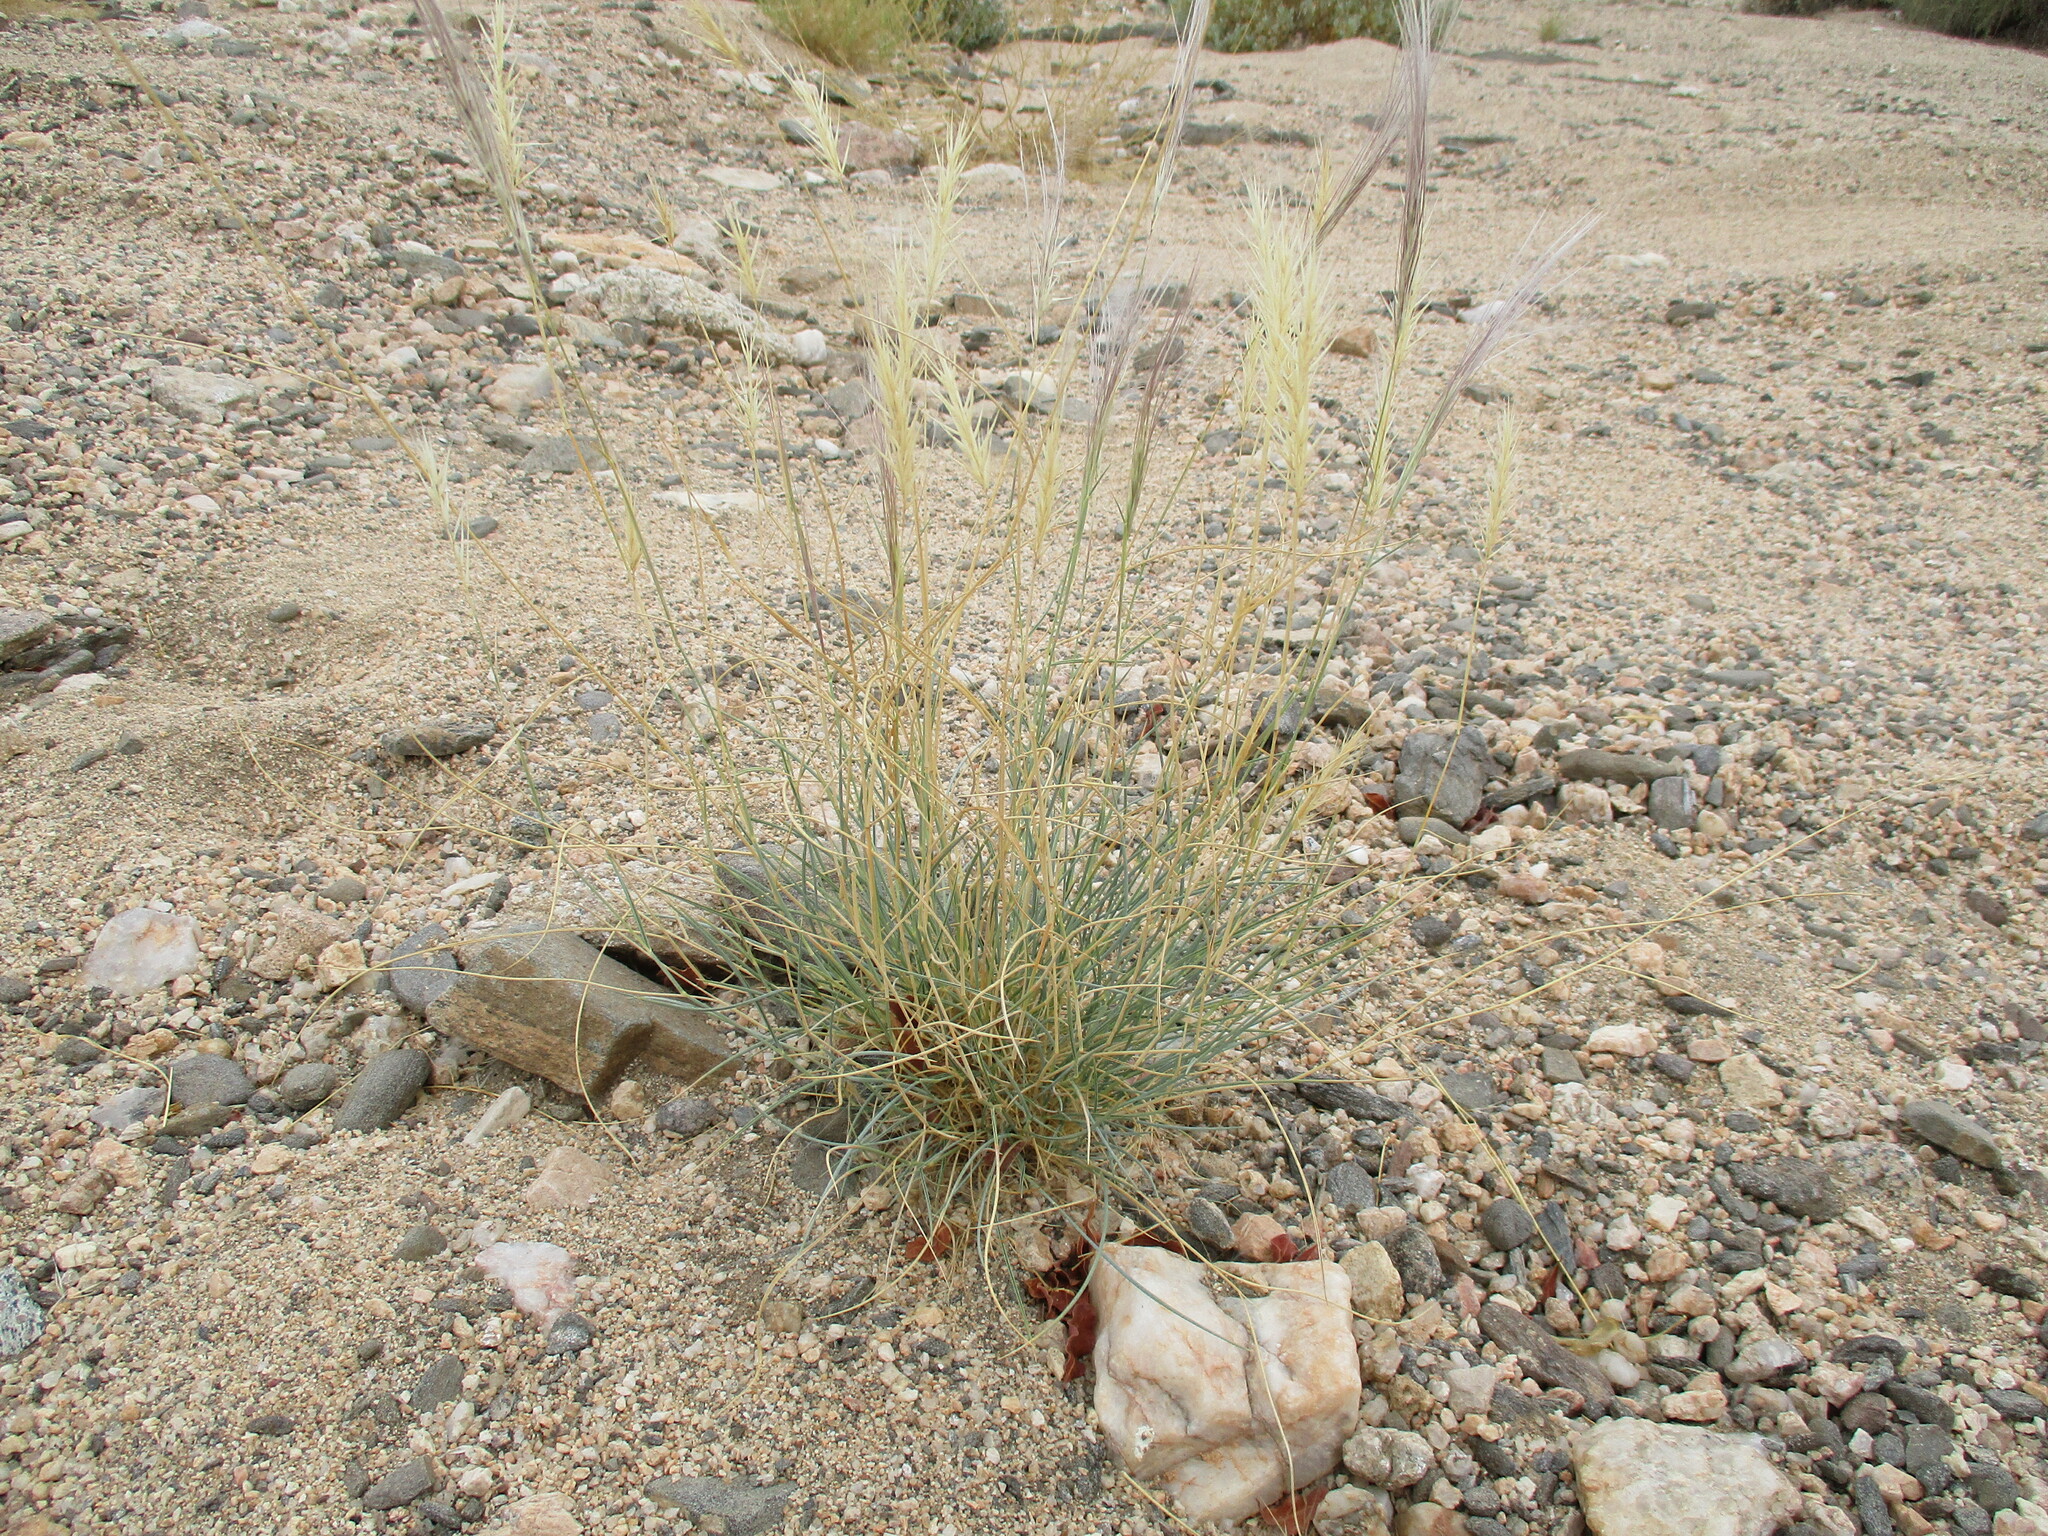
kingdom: Plantae
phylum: Tracheophyta
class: Liliopsida
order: Poales
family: Poaceae
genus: Stipagrostis
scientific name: Stipagrostis uniplumis
